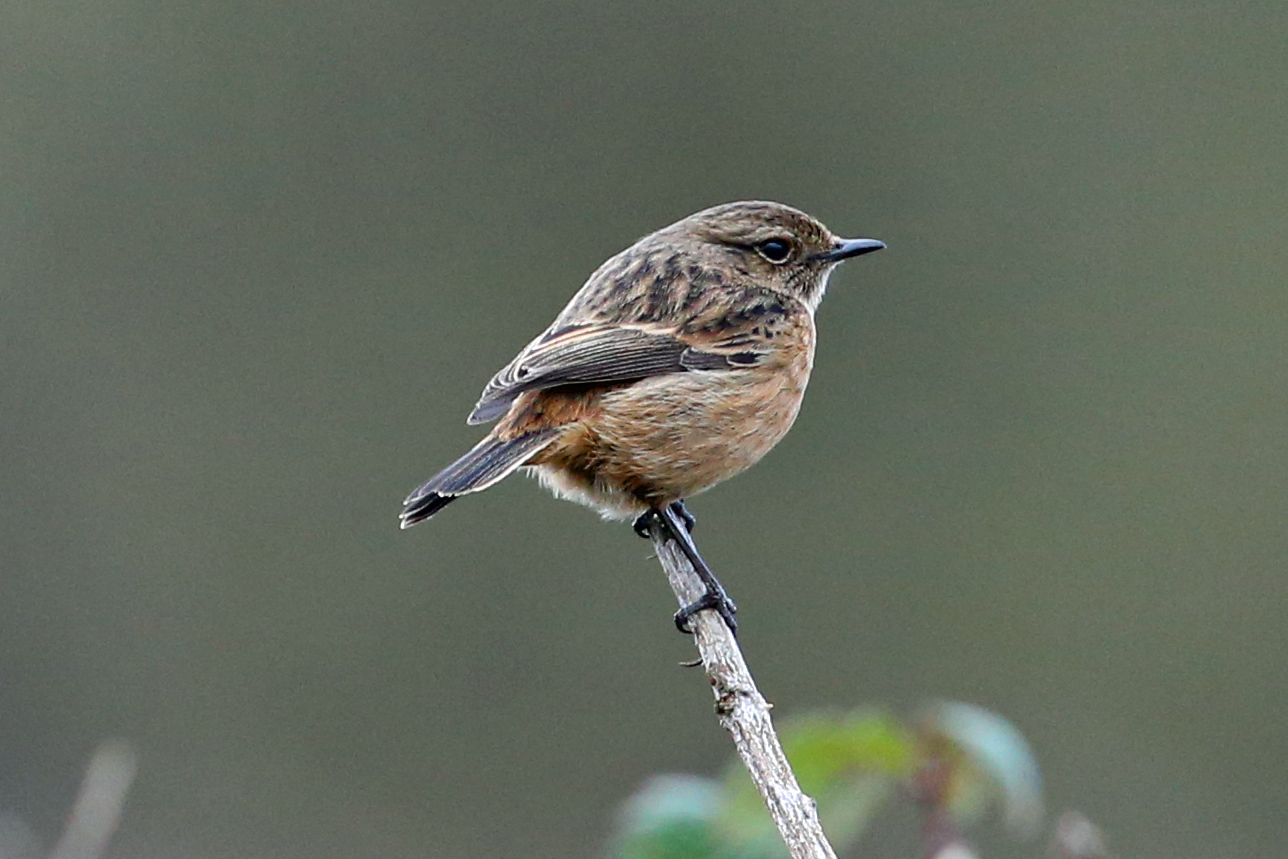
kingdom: Animalia
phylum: Chordata
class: Aves
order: Passeriformes
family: Muscicapidae
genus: Saxicola
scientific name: Saxicola rubicola
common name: European stonechat
